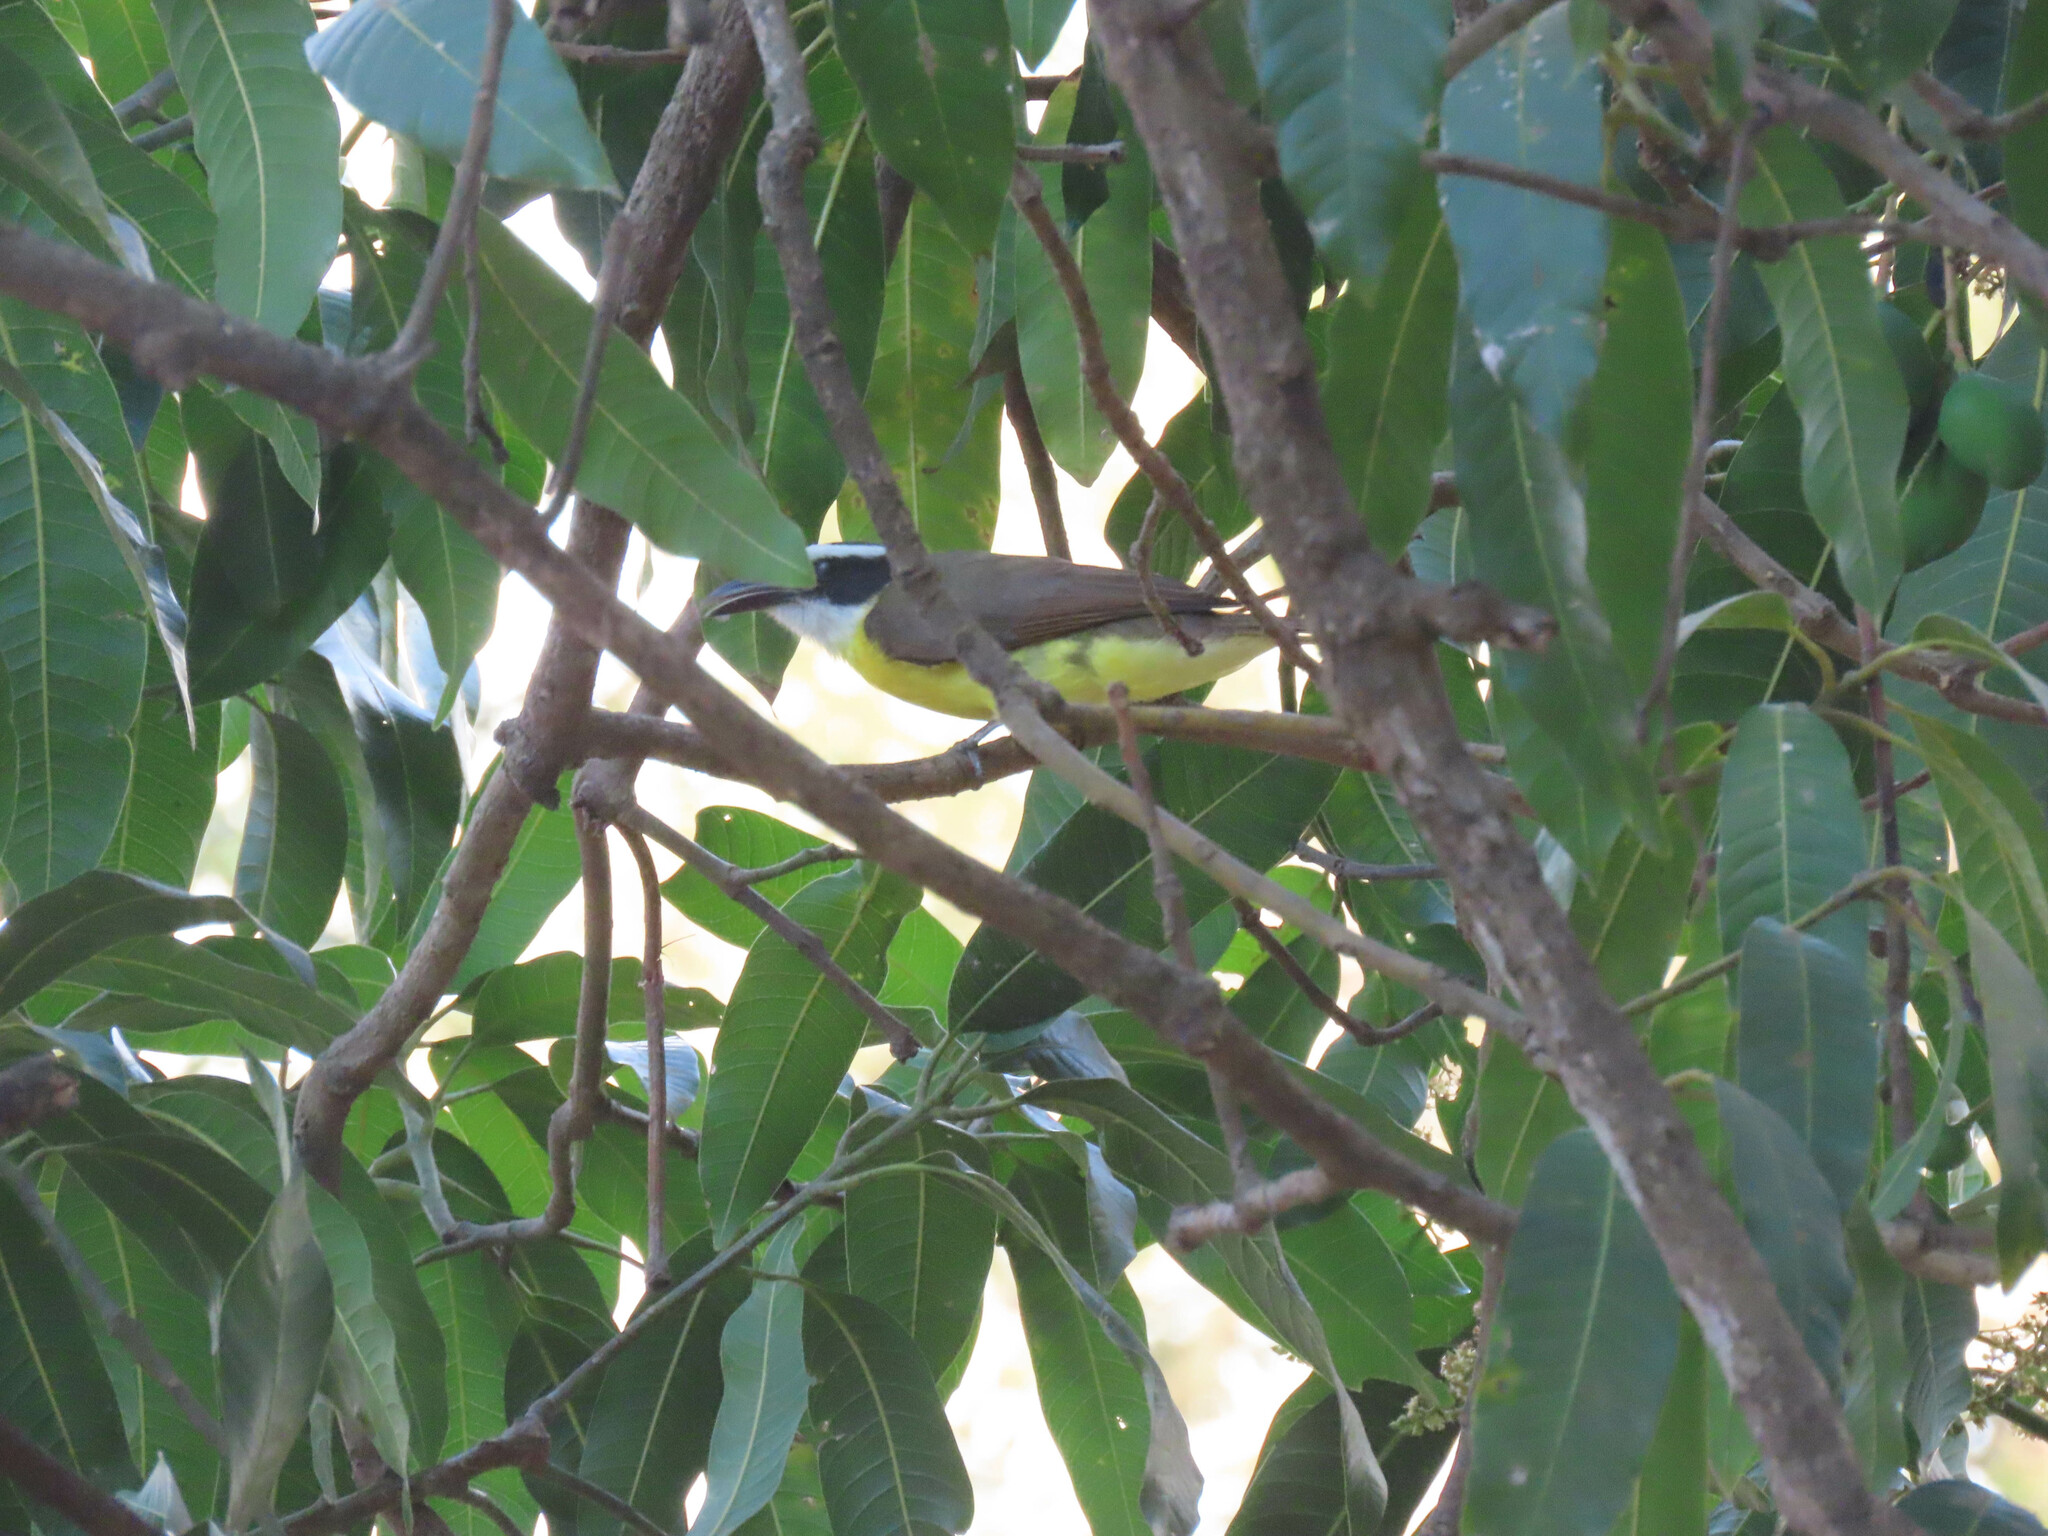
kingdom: Animalia
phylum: Chordata
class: Aves
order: Passeriformes
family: Tyrannidae
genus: Megarynchus
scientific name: Megarynchus pitangua
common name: Boat-billed flycatcher
